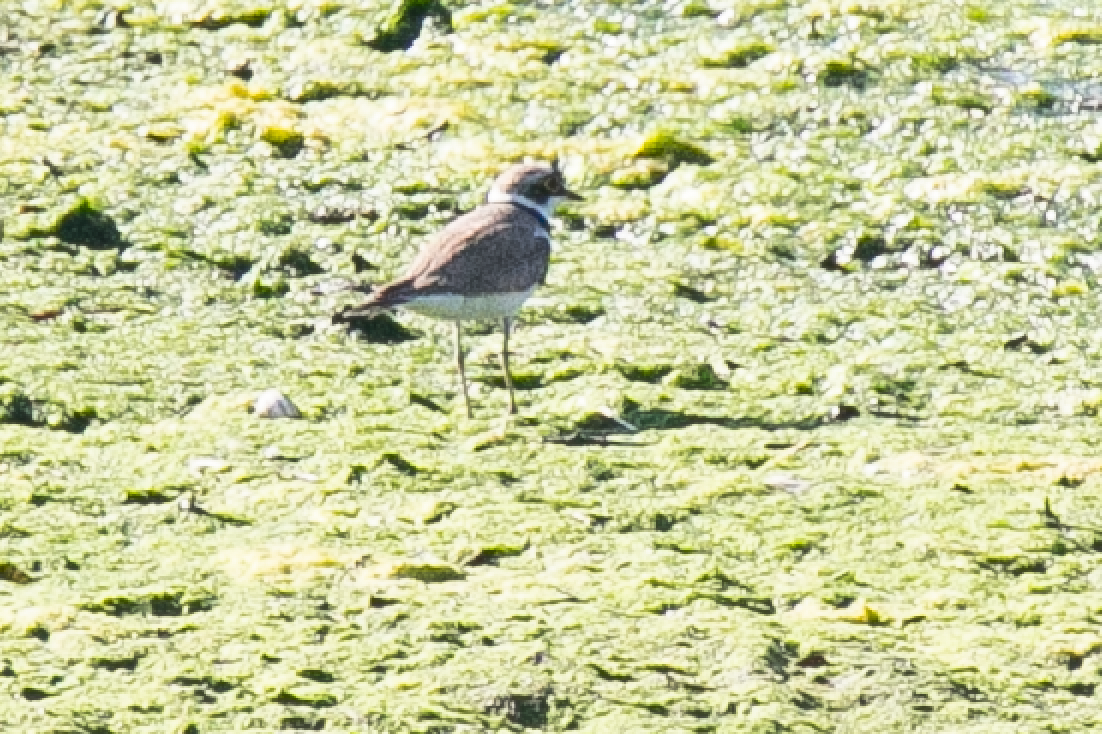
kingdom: Animalia
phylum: Chordata
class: Aves
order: Charadriiformes
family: Charadriidae
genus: Charadrius
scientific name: Charadrius dubius
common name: Little ringed plover
